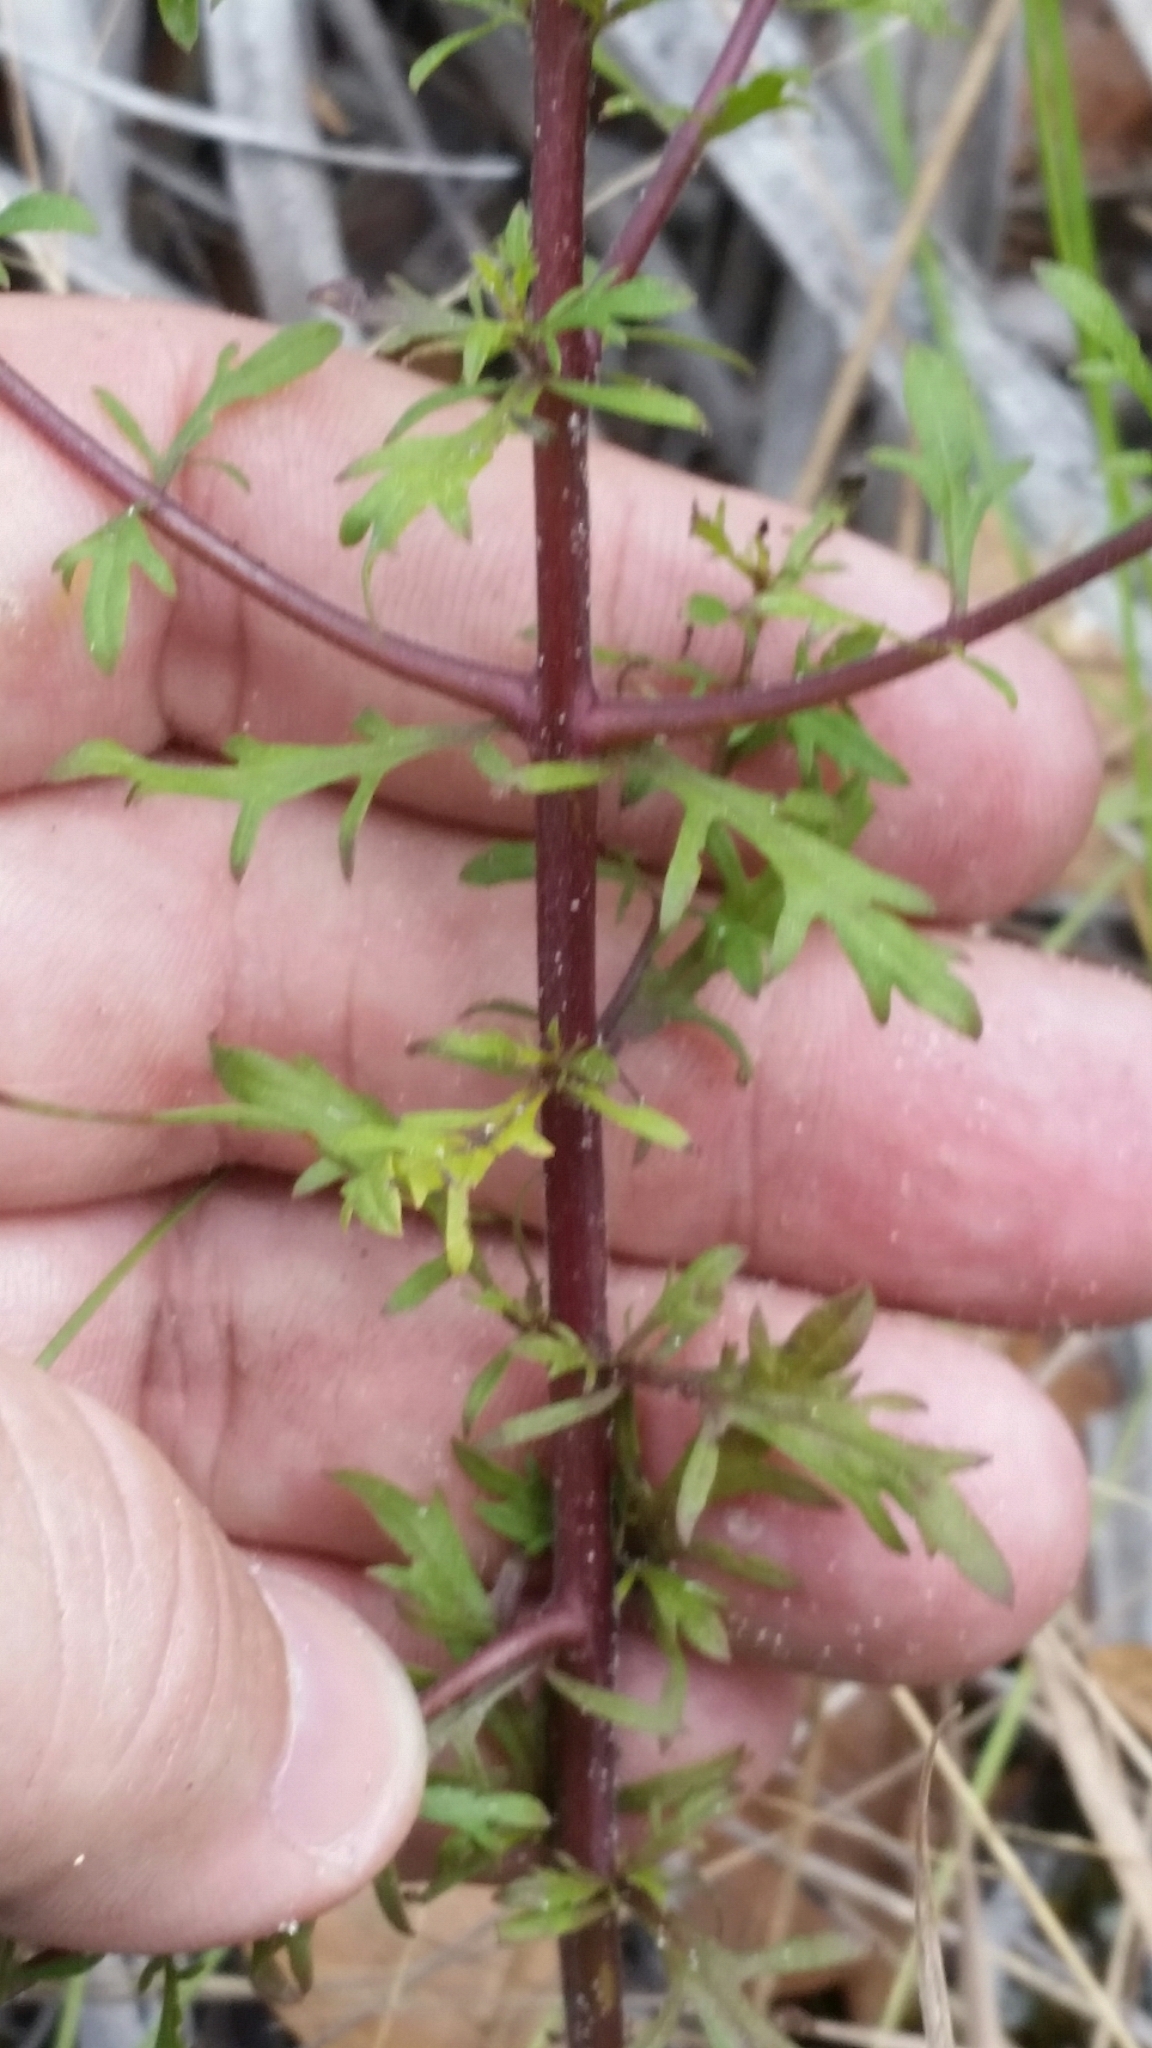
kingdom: Plantae
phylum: Tracheophyta
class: Magnoliopsida
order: Lamiales
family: Orobanchaceae
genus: Seymeria
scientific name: Seymeria pectinata
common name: Piedmont black-senna
